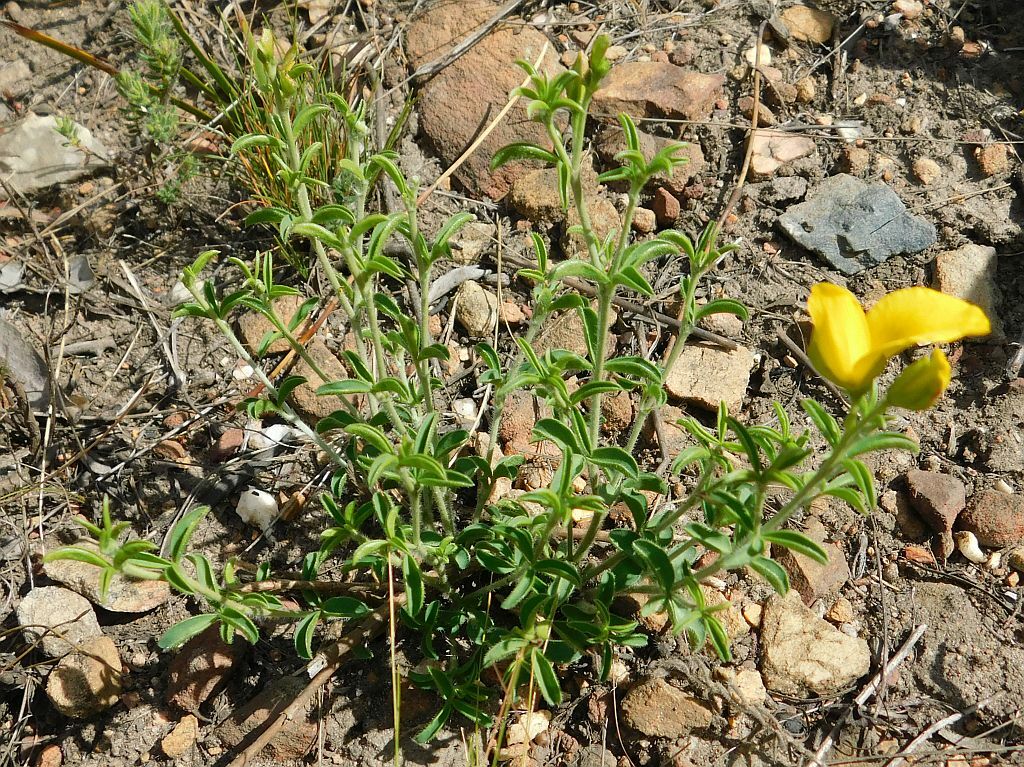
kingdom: Plantae
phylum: Tracheophyta
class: Magnoliopsida
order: Fabales
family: Fabaceae
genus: Argyrolobium
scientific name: Argyrolobium pachyphyllum
